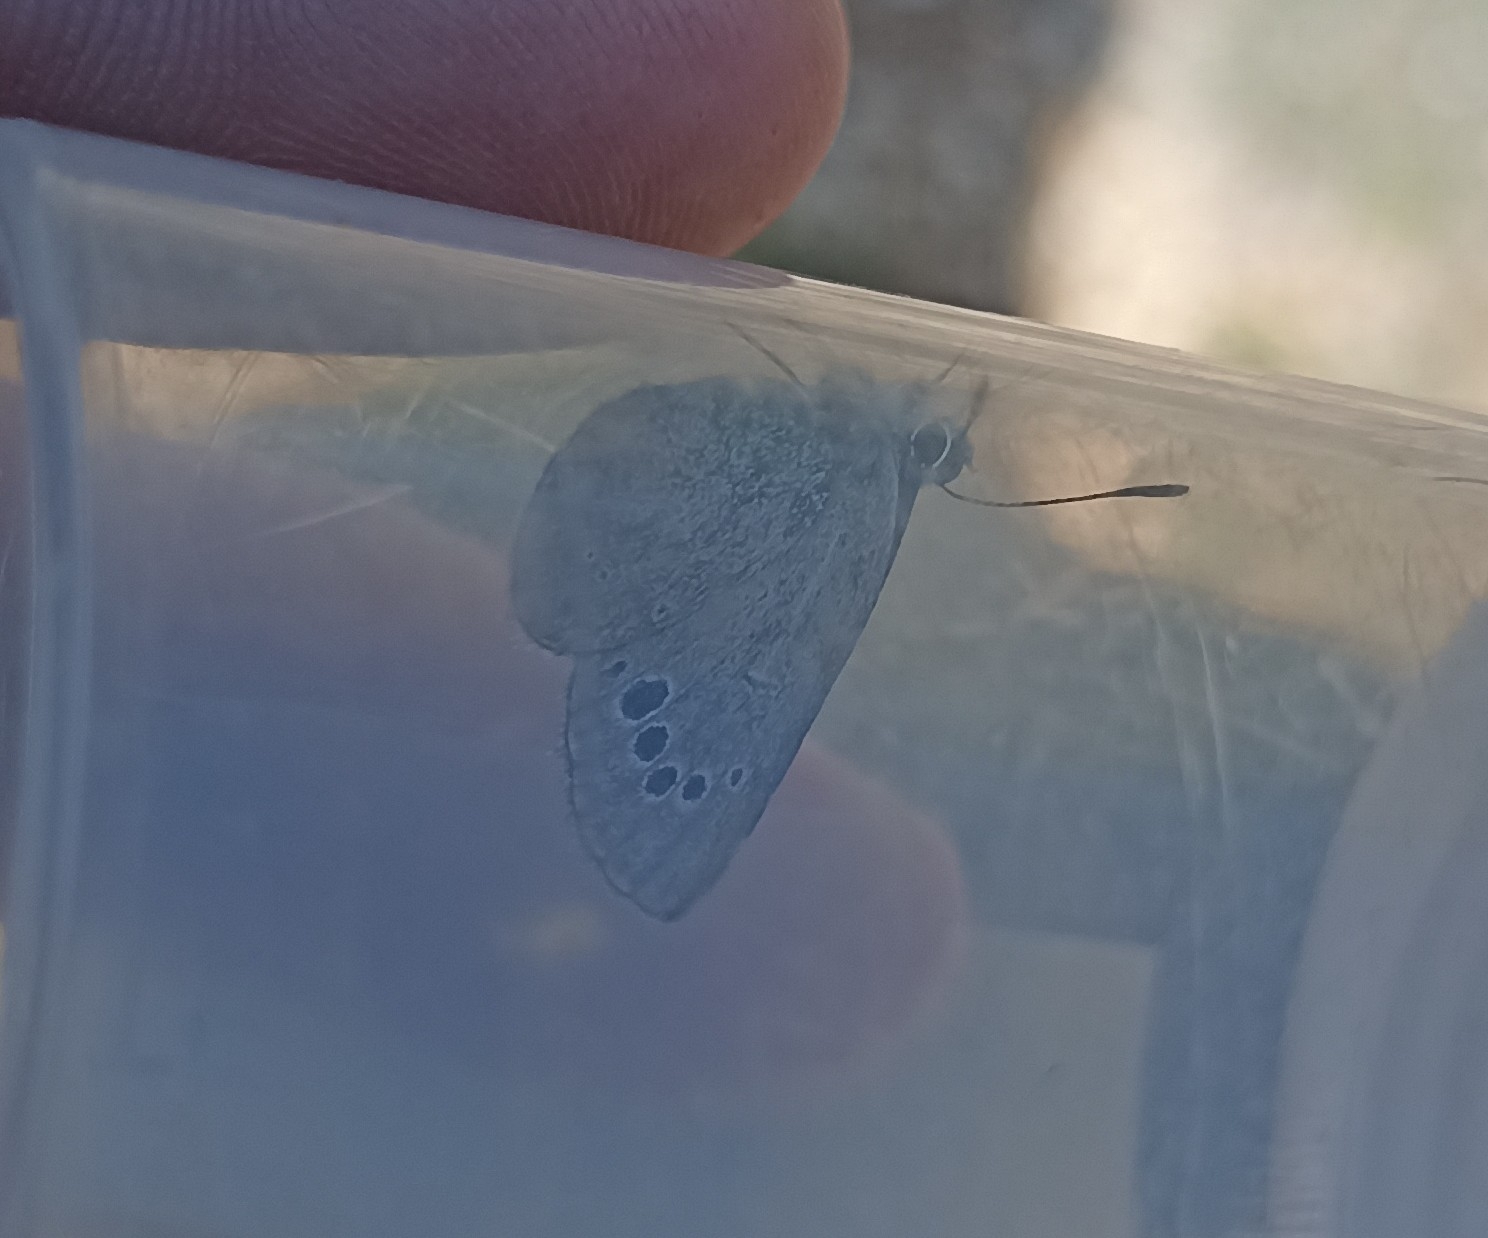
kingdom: Animalia
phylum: Arthropoda
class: Insecta
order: Lepidoptera
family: Lycaenidae
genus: Glaucopsyche
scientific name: Glaucopsyche melanops
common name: Black-eyed blue
